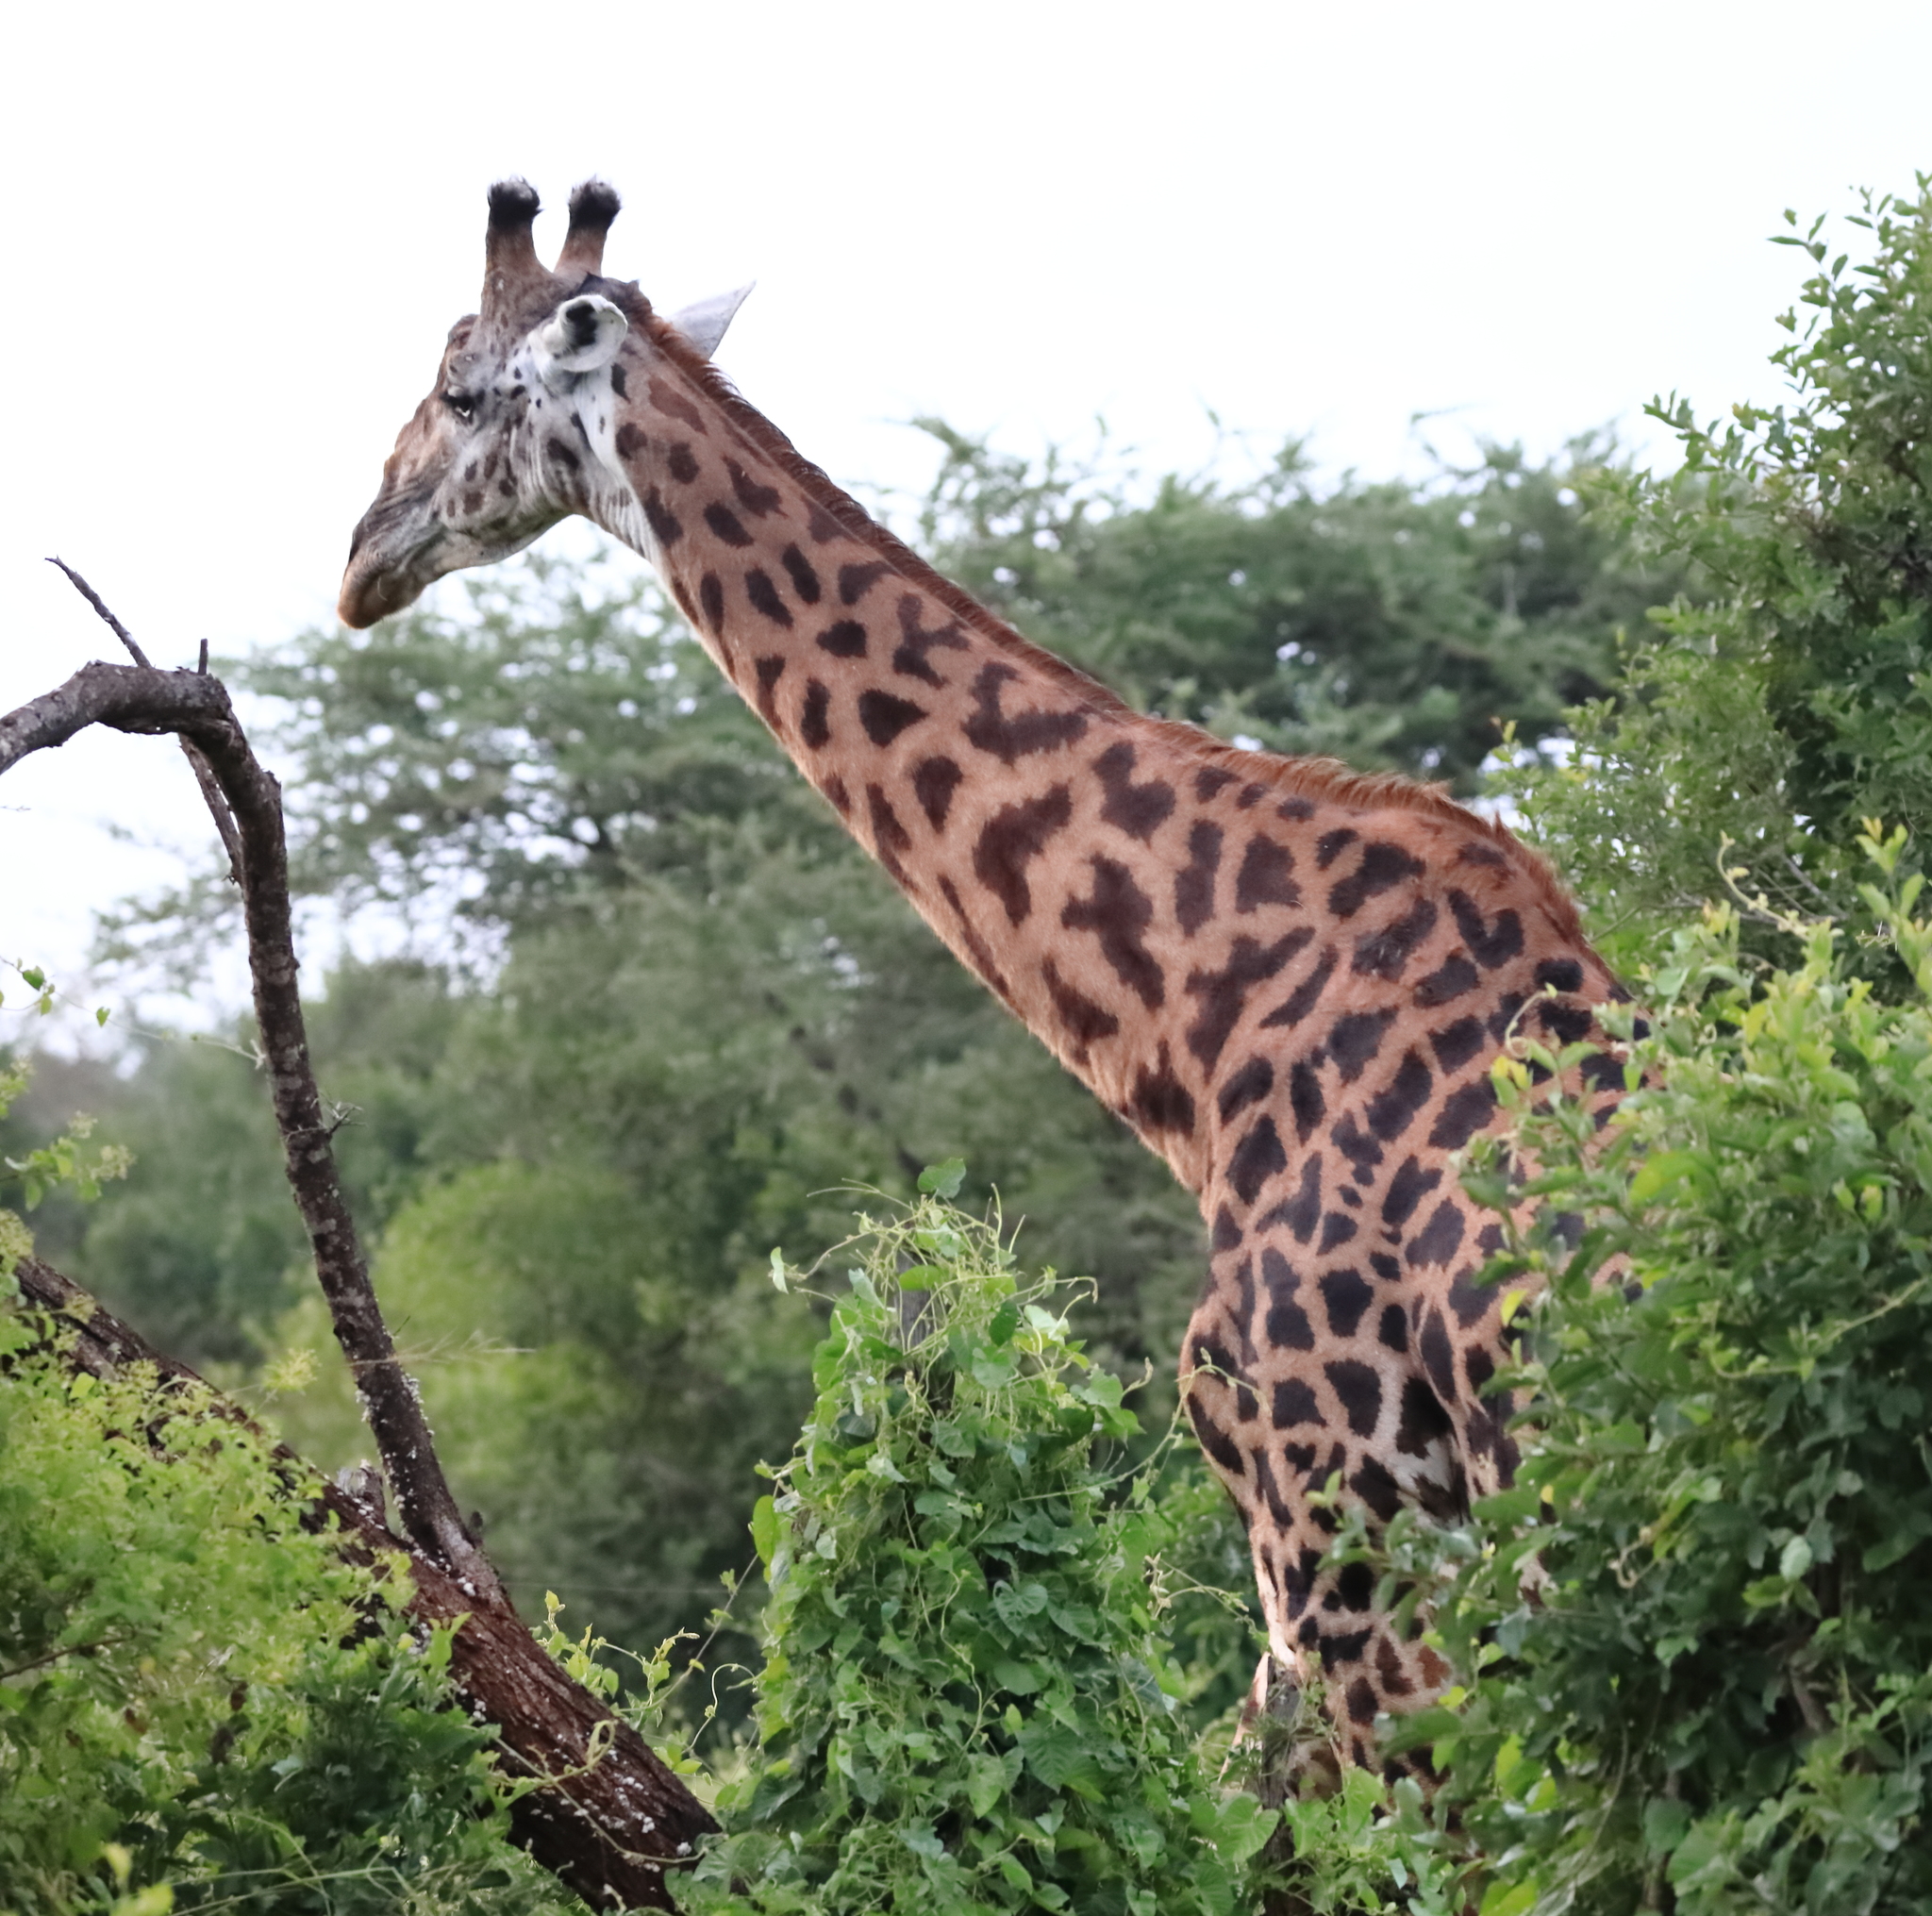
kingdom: Animalia
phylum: Chordata
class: Mammalia
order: Artiodactyla
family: Giraffidae
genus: Giraffa
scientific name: Giraffa tippelskirchi
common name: Masai giraffe
